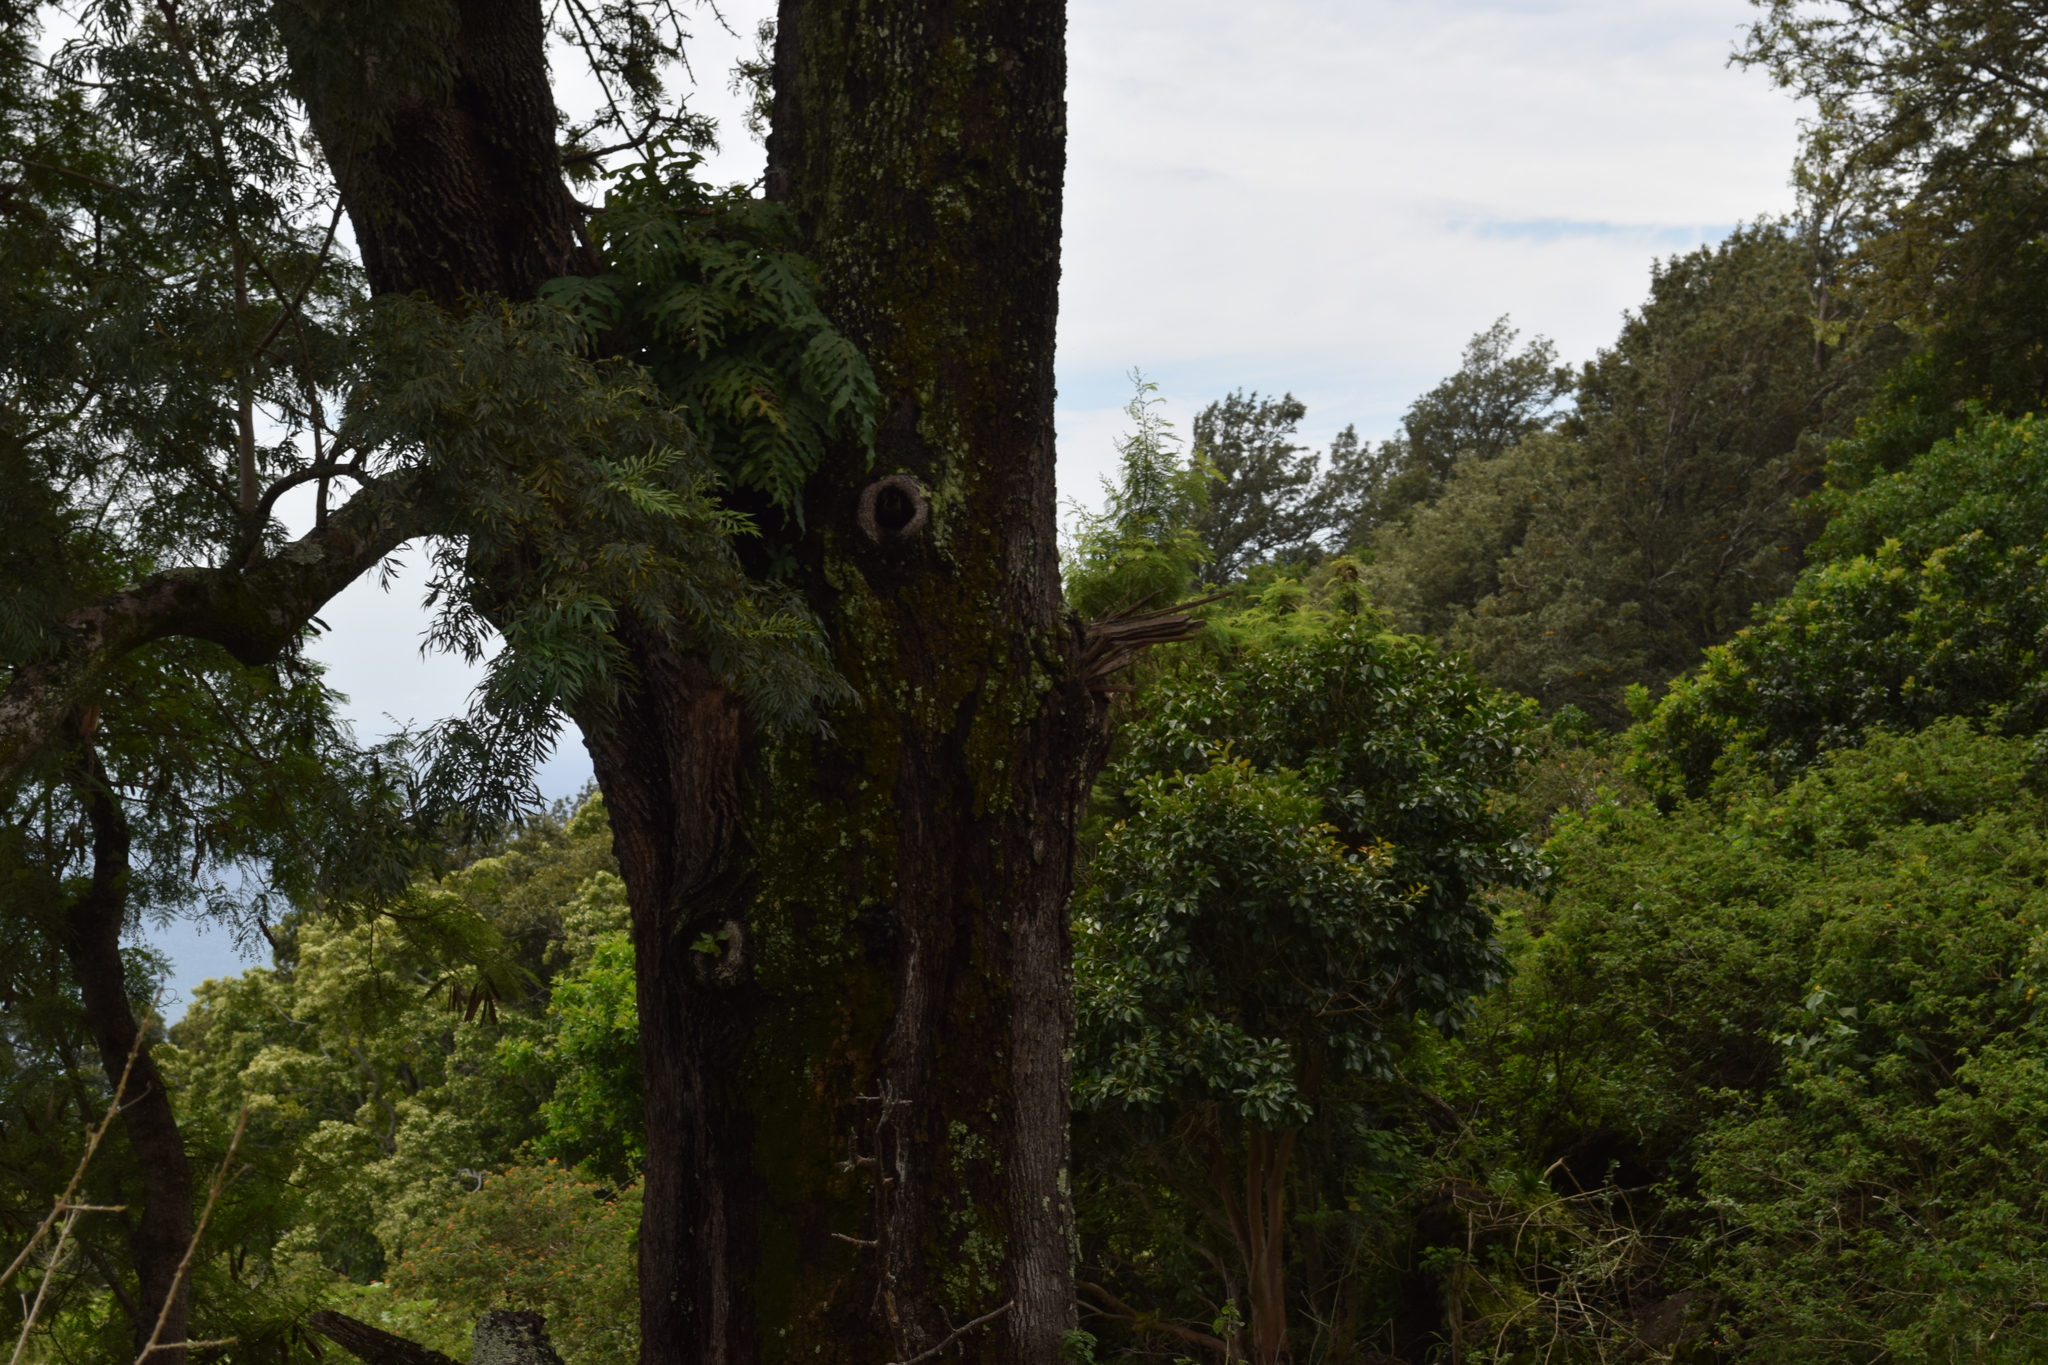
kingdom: Plantae
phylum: Tracheophyta
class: Magnoliopsida
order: Proteales
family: Proteaceae
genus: Grevillea
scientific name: Grevillea robusta
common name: Silkoak
